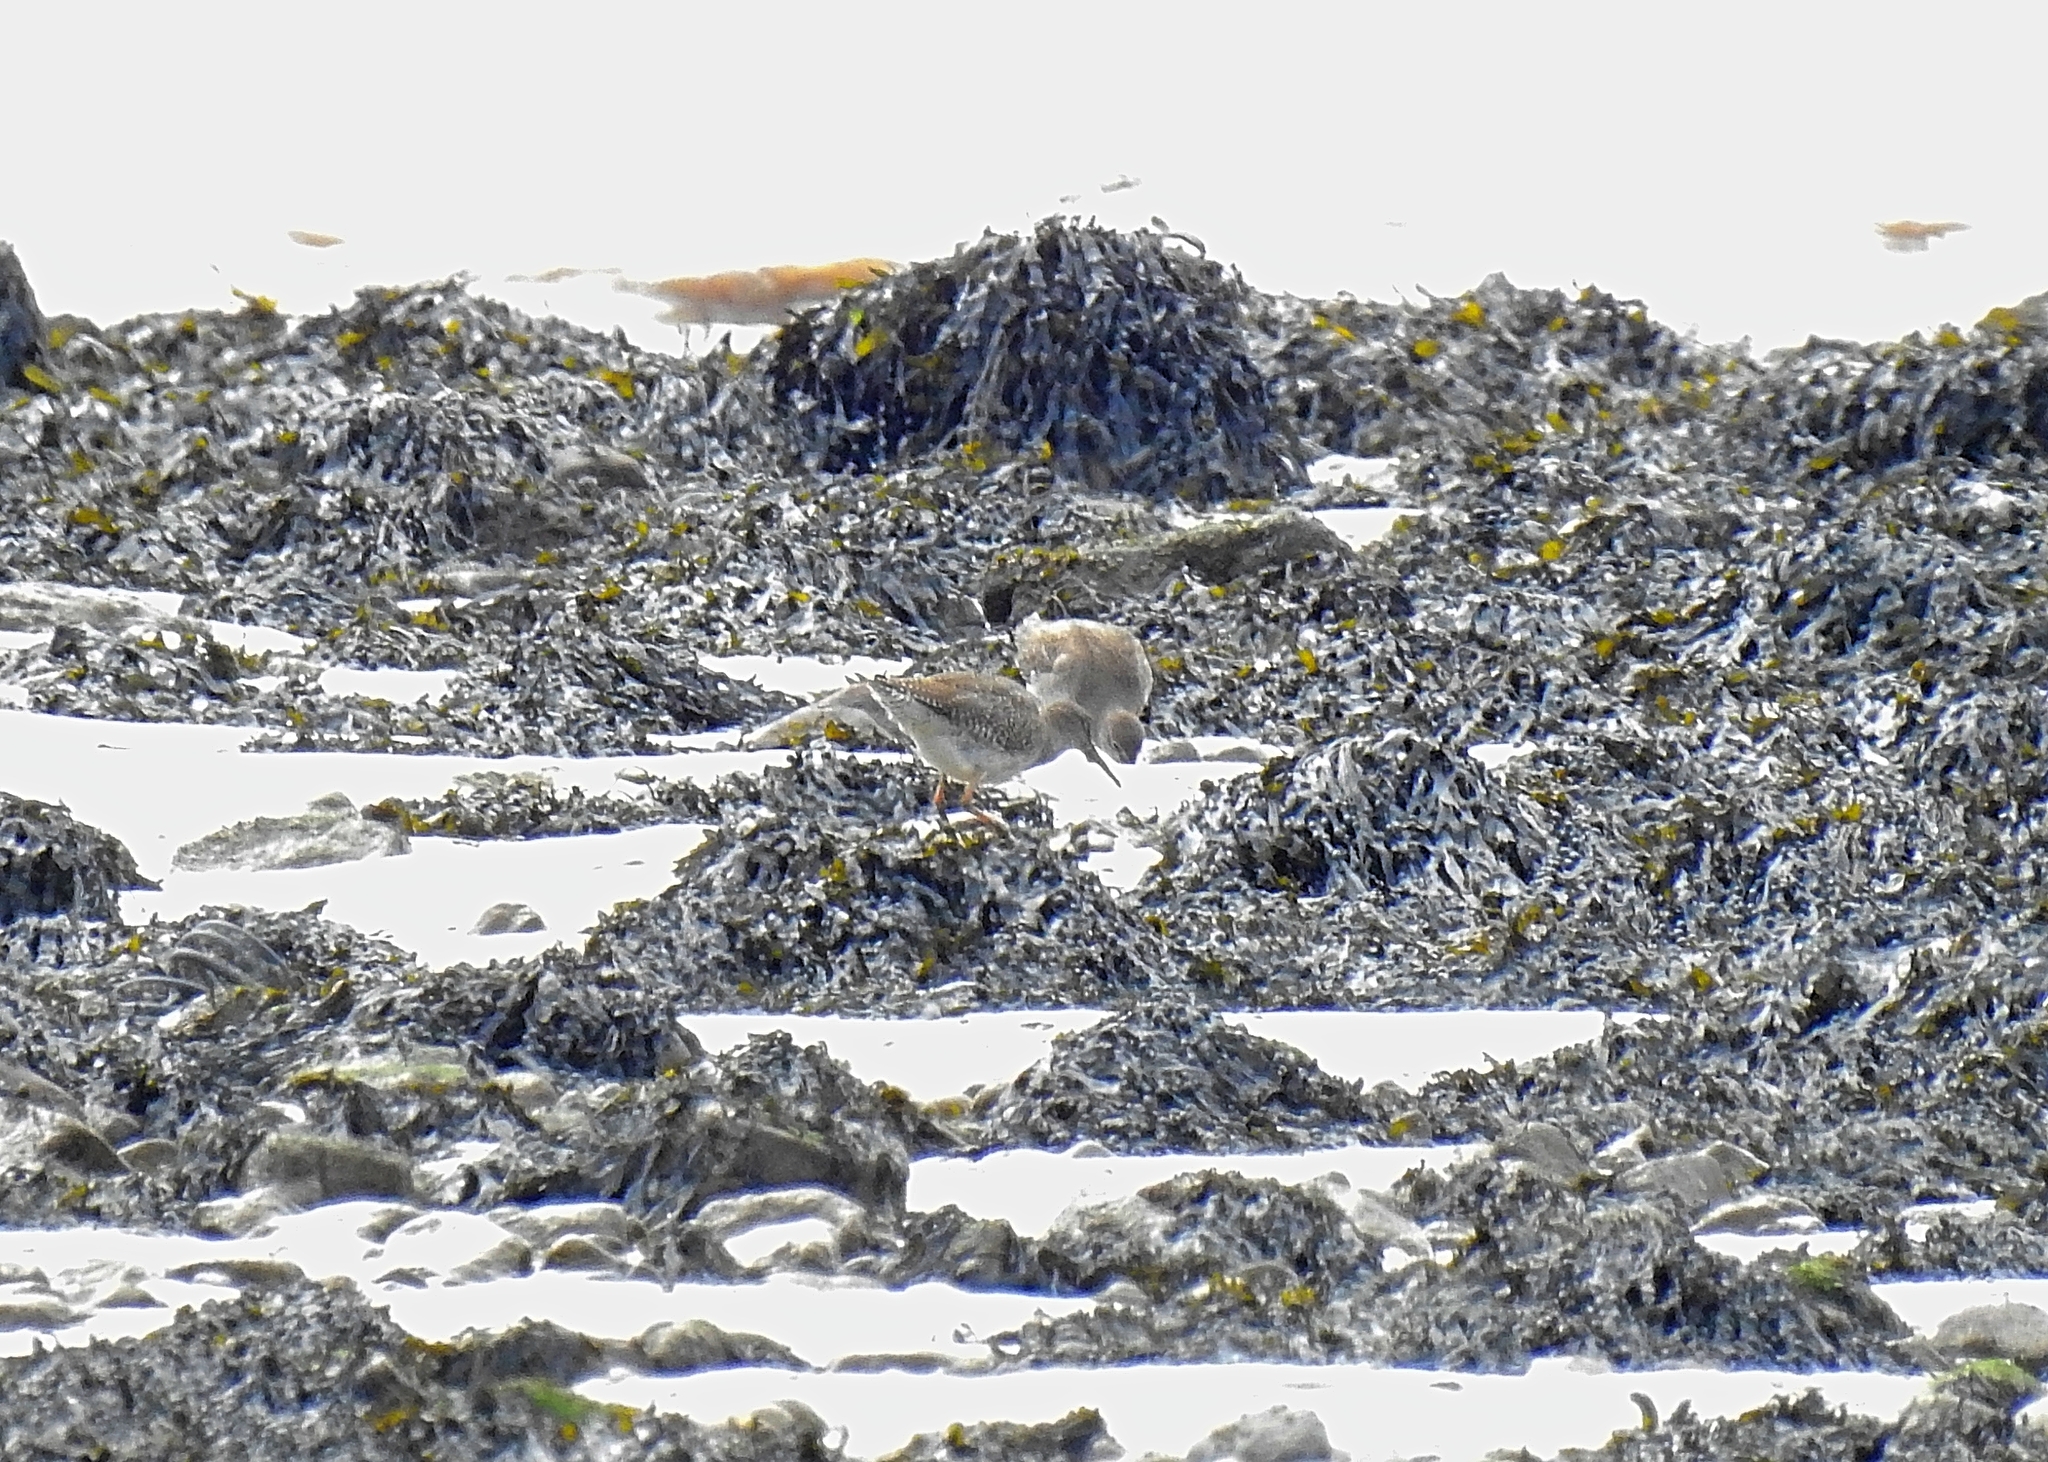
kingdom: Animalia
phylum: Chordata
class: Aves
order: Charadriiformes
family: Scolopacidae
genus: Tringa
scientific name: Tringa totanus
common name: Common redshank
